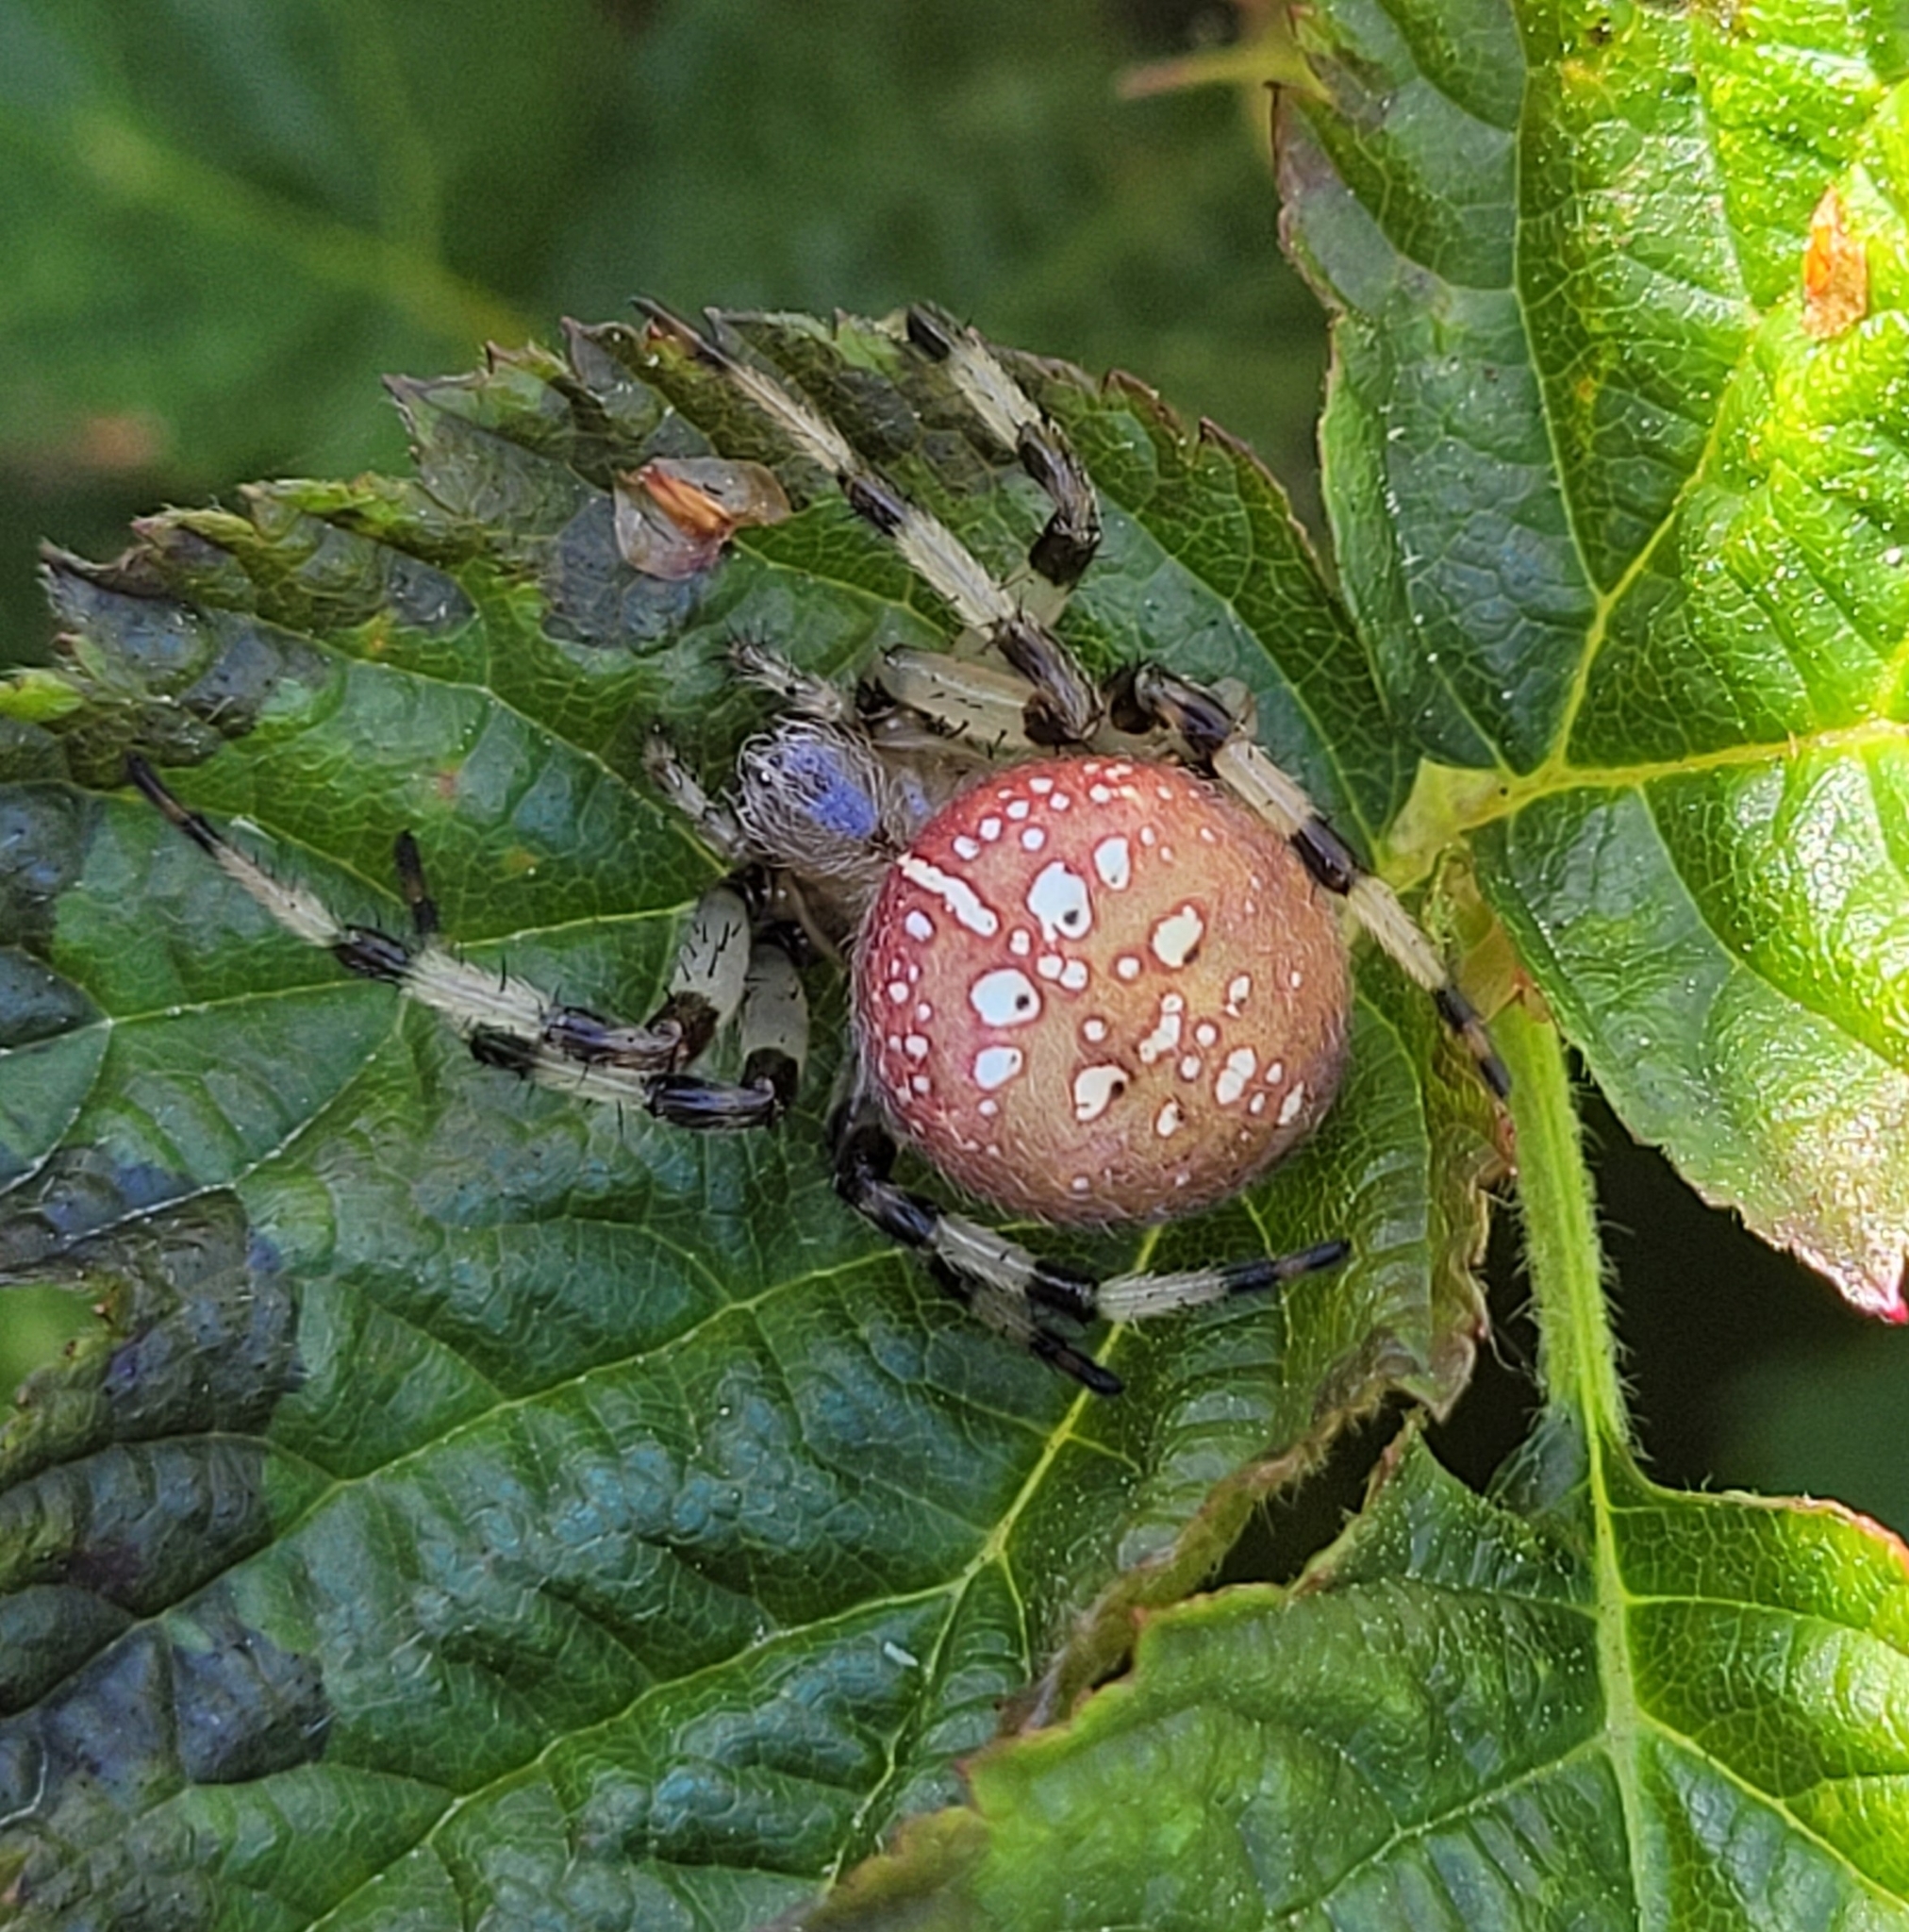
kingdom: Animalia
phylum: Arthropoda
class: Arachnida
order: Araneae
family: Araneidae
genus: Araneus
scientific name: Araneus trifolium
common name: Shamrock orbweaver
